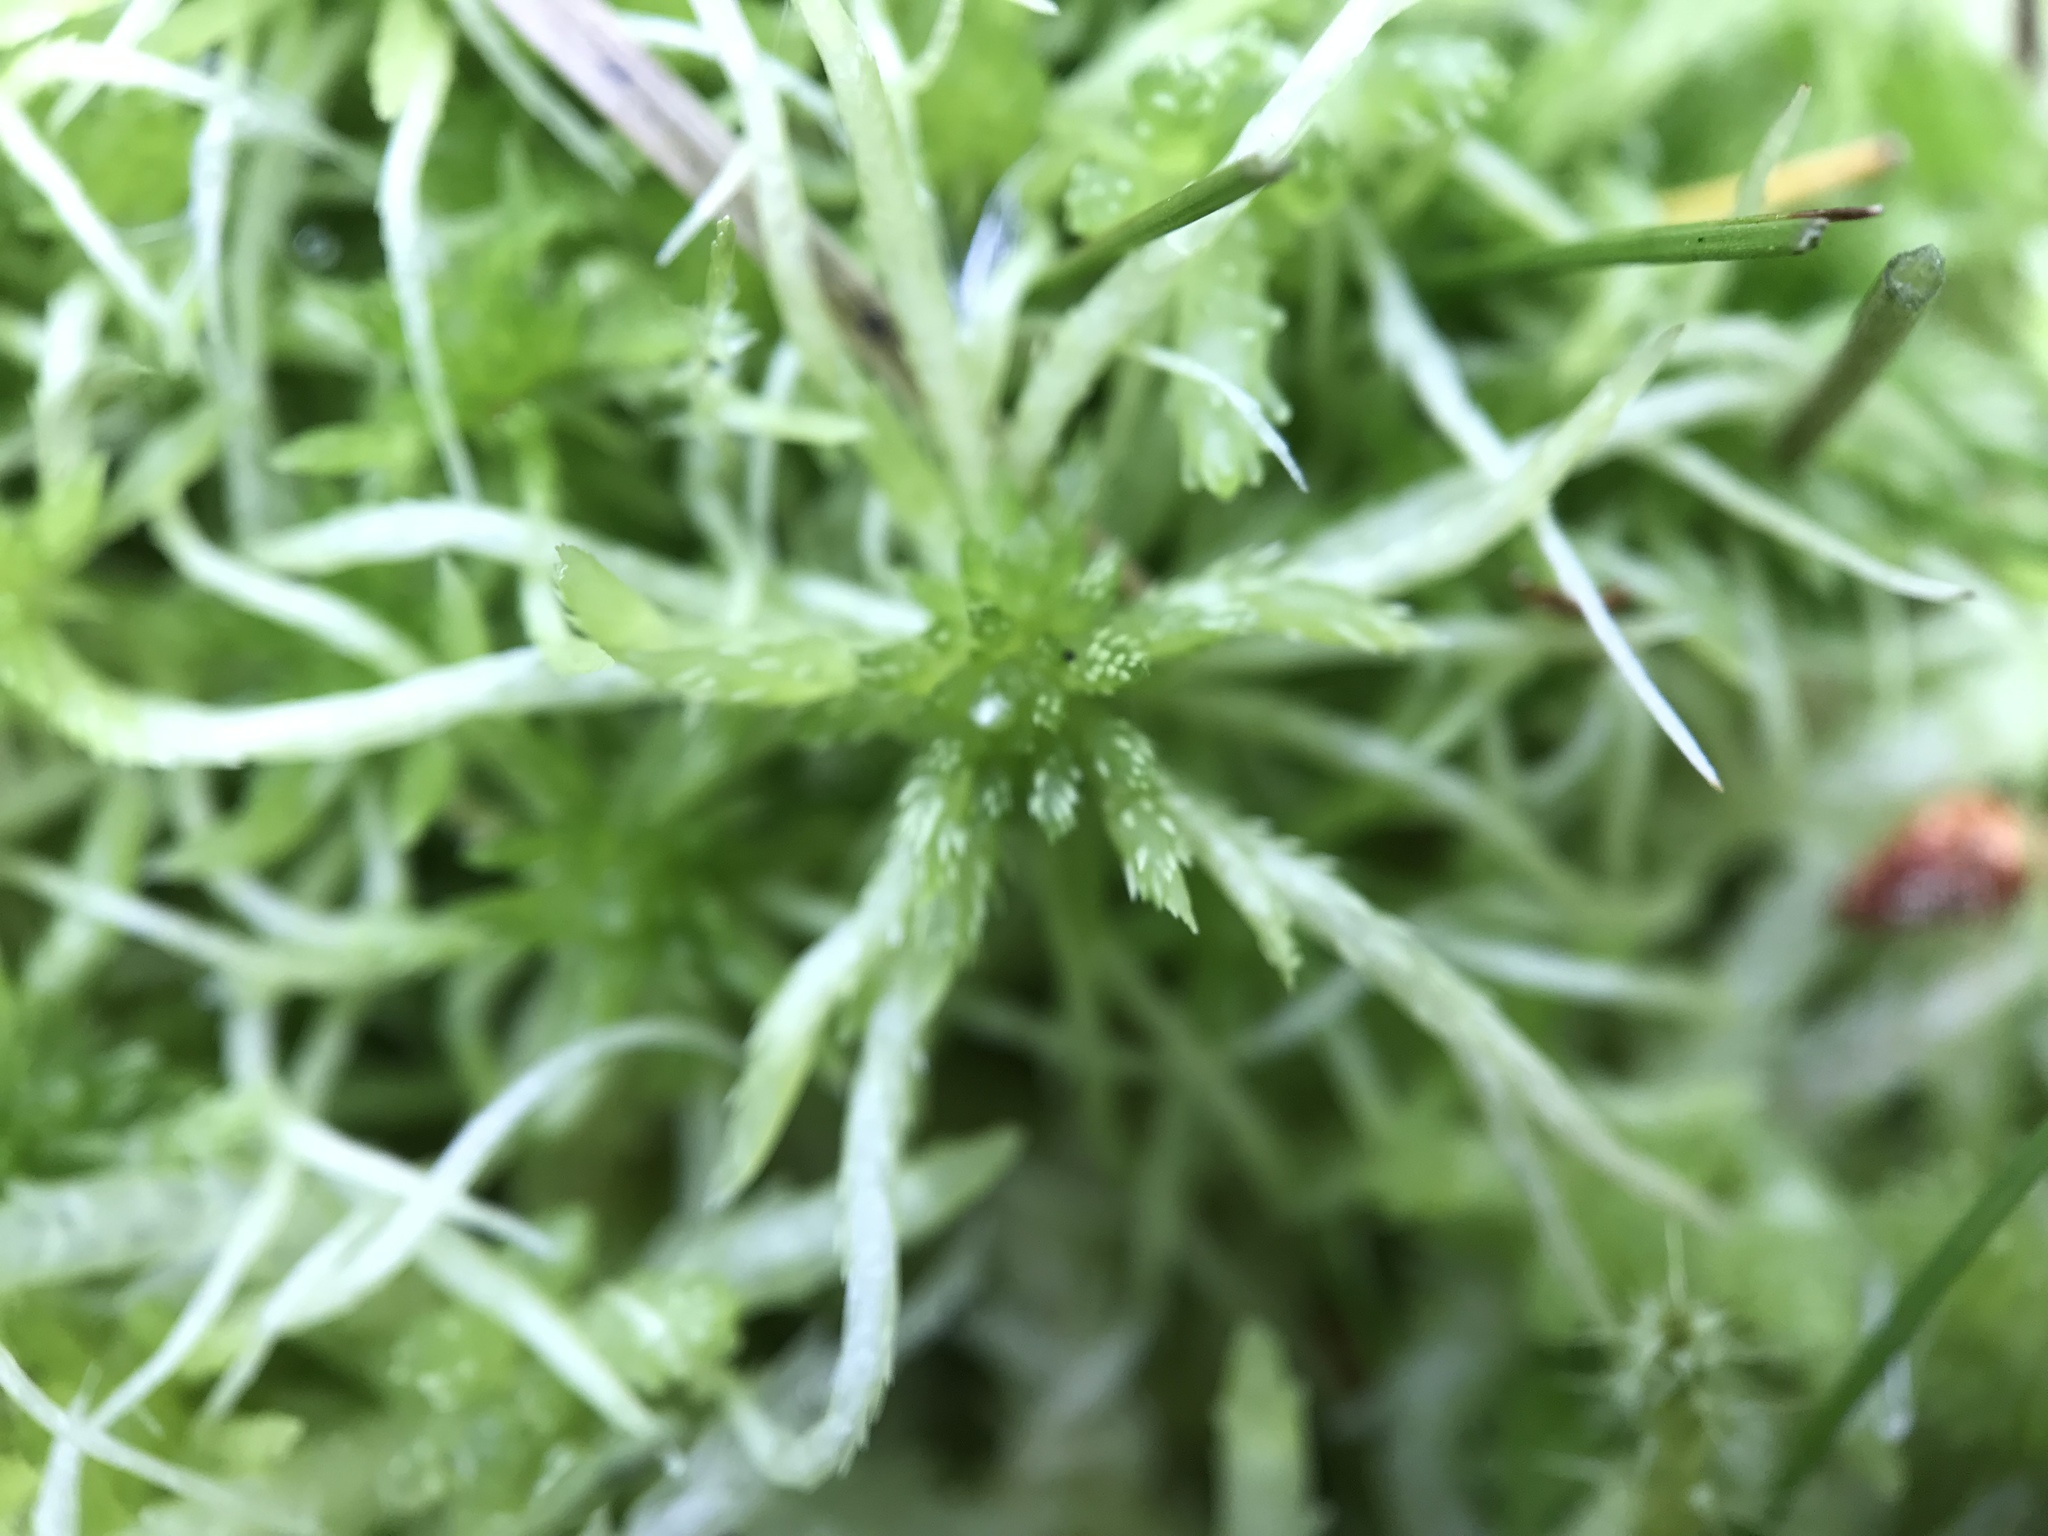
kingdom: Plantae
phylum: Bryophyta
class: Sphagnopsida
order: Sphagnales
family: Sphagnaceae
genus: Sphagnum
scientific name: Sphagnum fallax
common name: Flat-top peat moss
